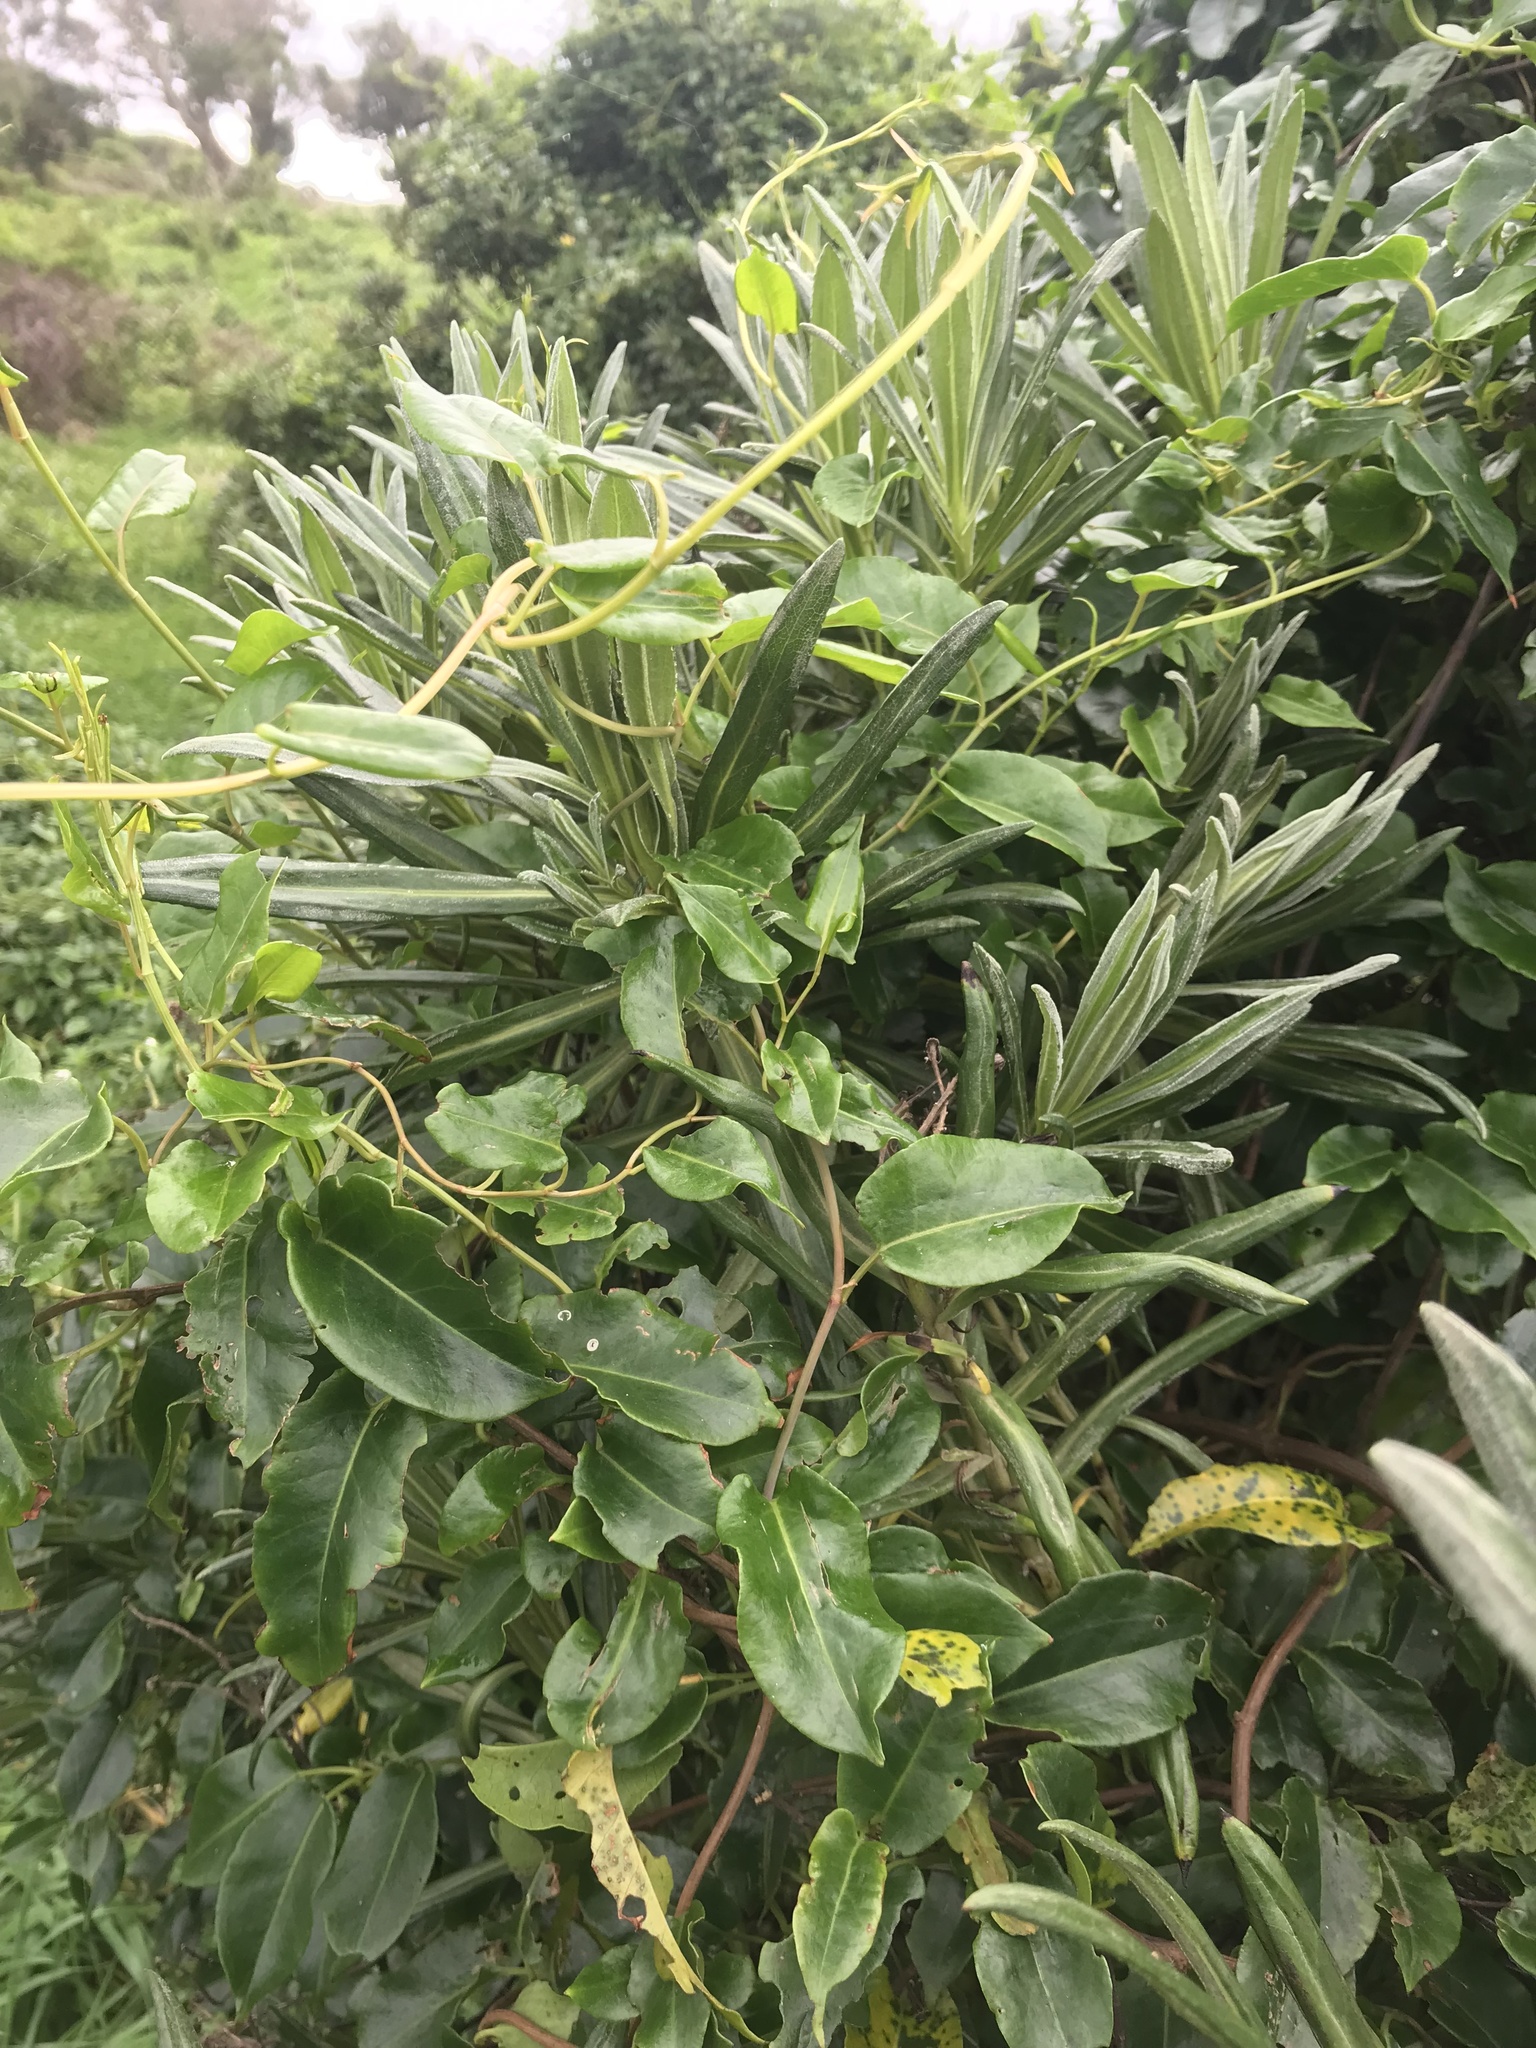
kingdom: Plantae
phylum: Tracheophyta
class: Magnoliopsida
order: Caryophyllales
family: Polygonaceae
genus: Muehlenbeckia
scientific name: Muehlenbeckia australis
